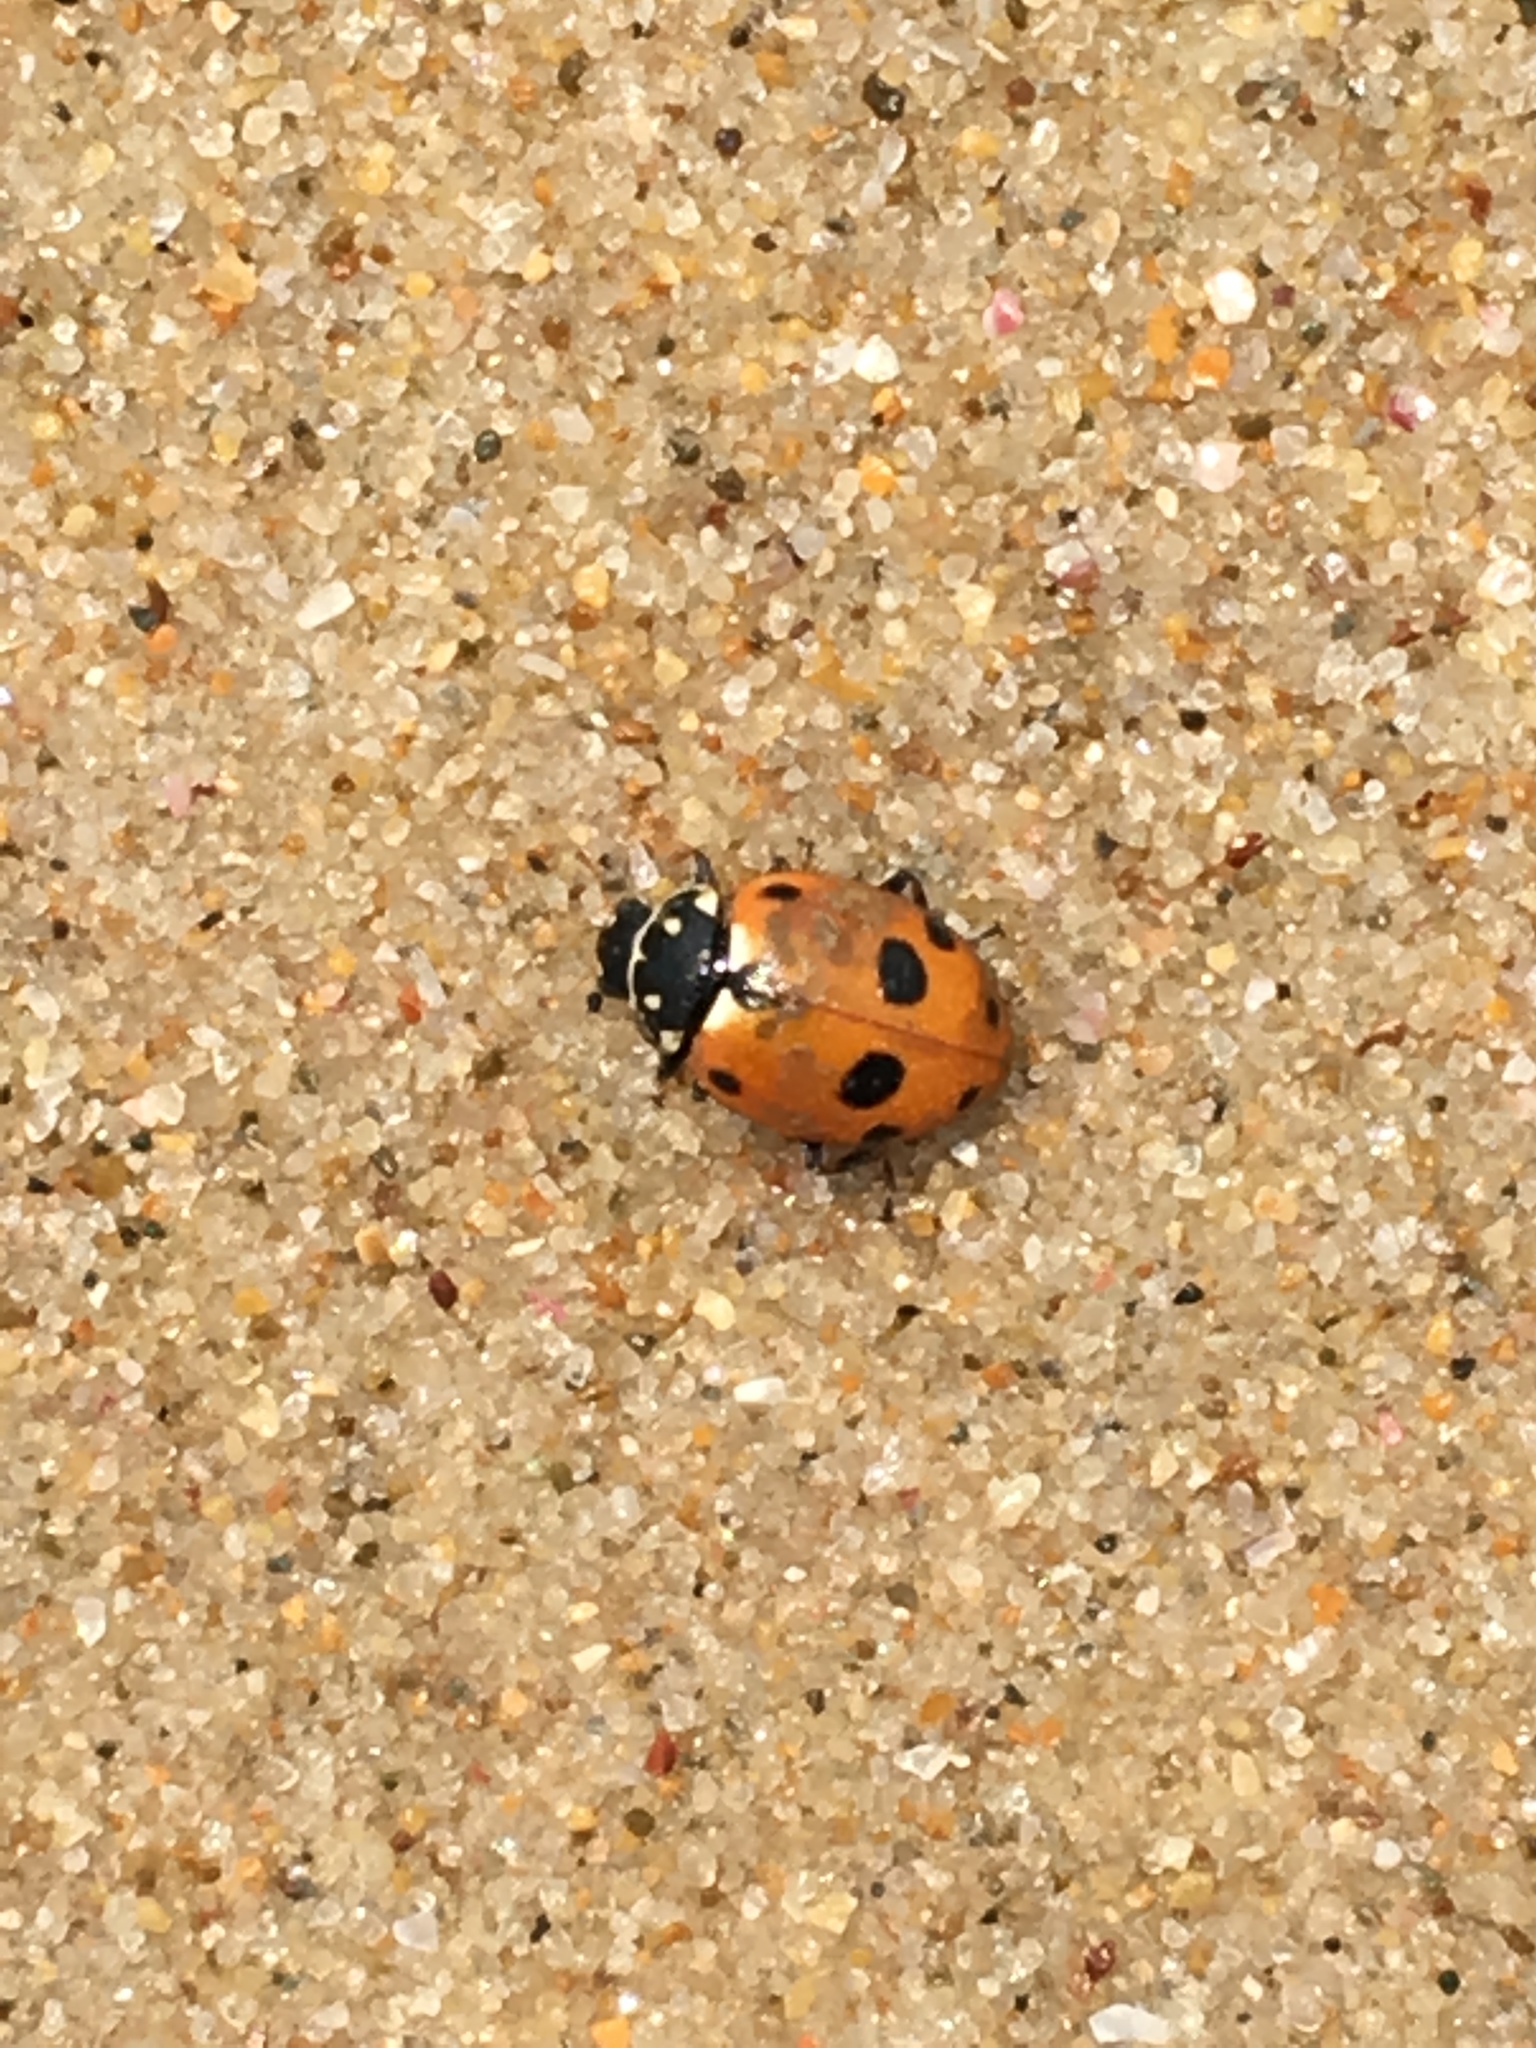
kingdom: Animalia
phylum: Arthropoda
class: Insecta
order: Coleoptera
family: Coccinellidae
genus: Hippodamia
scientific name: Hippodamia variegata
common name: Ladybird beetle
